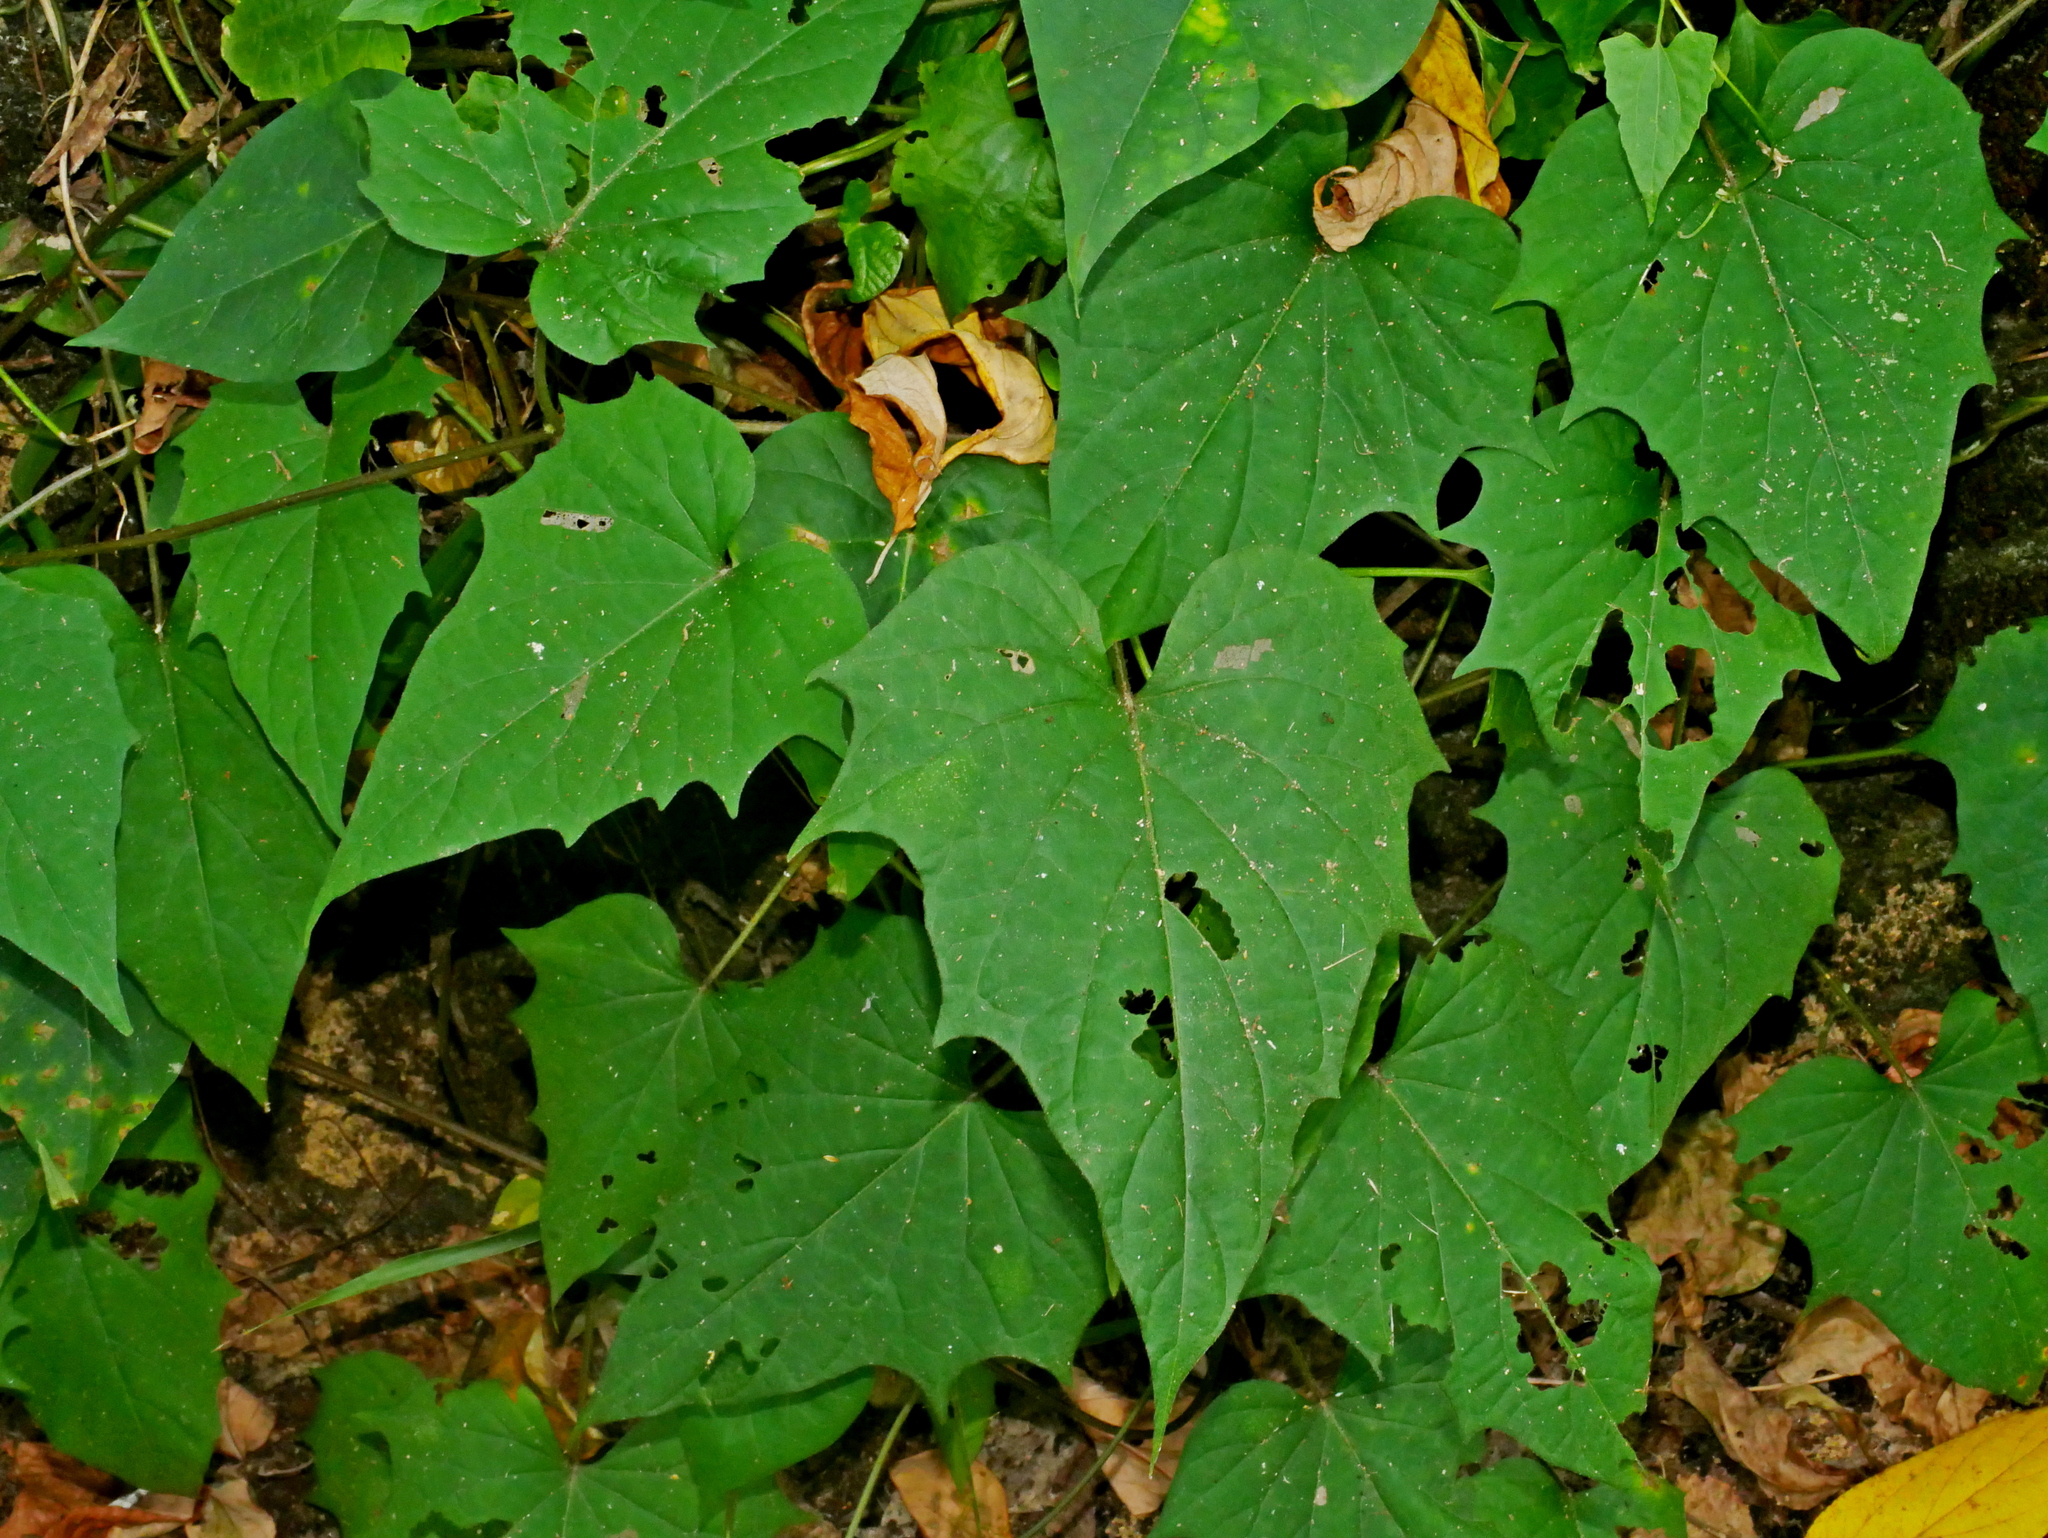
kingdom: Plantae
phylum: Tracheophyta
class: Magnoliopsida
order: Solanales
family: Convolvulaceae
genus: Lepistemon
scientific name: Lepistemon intermedius
